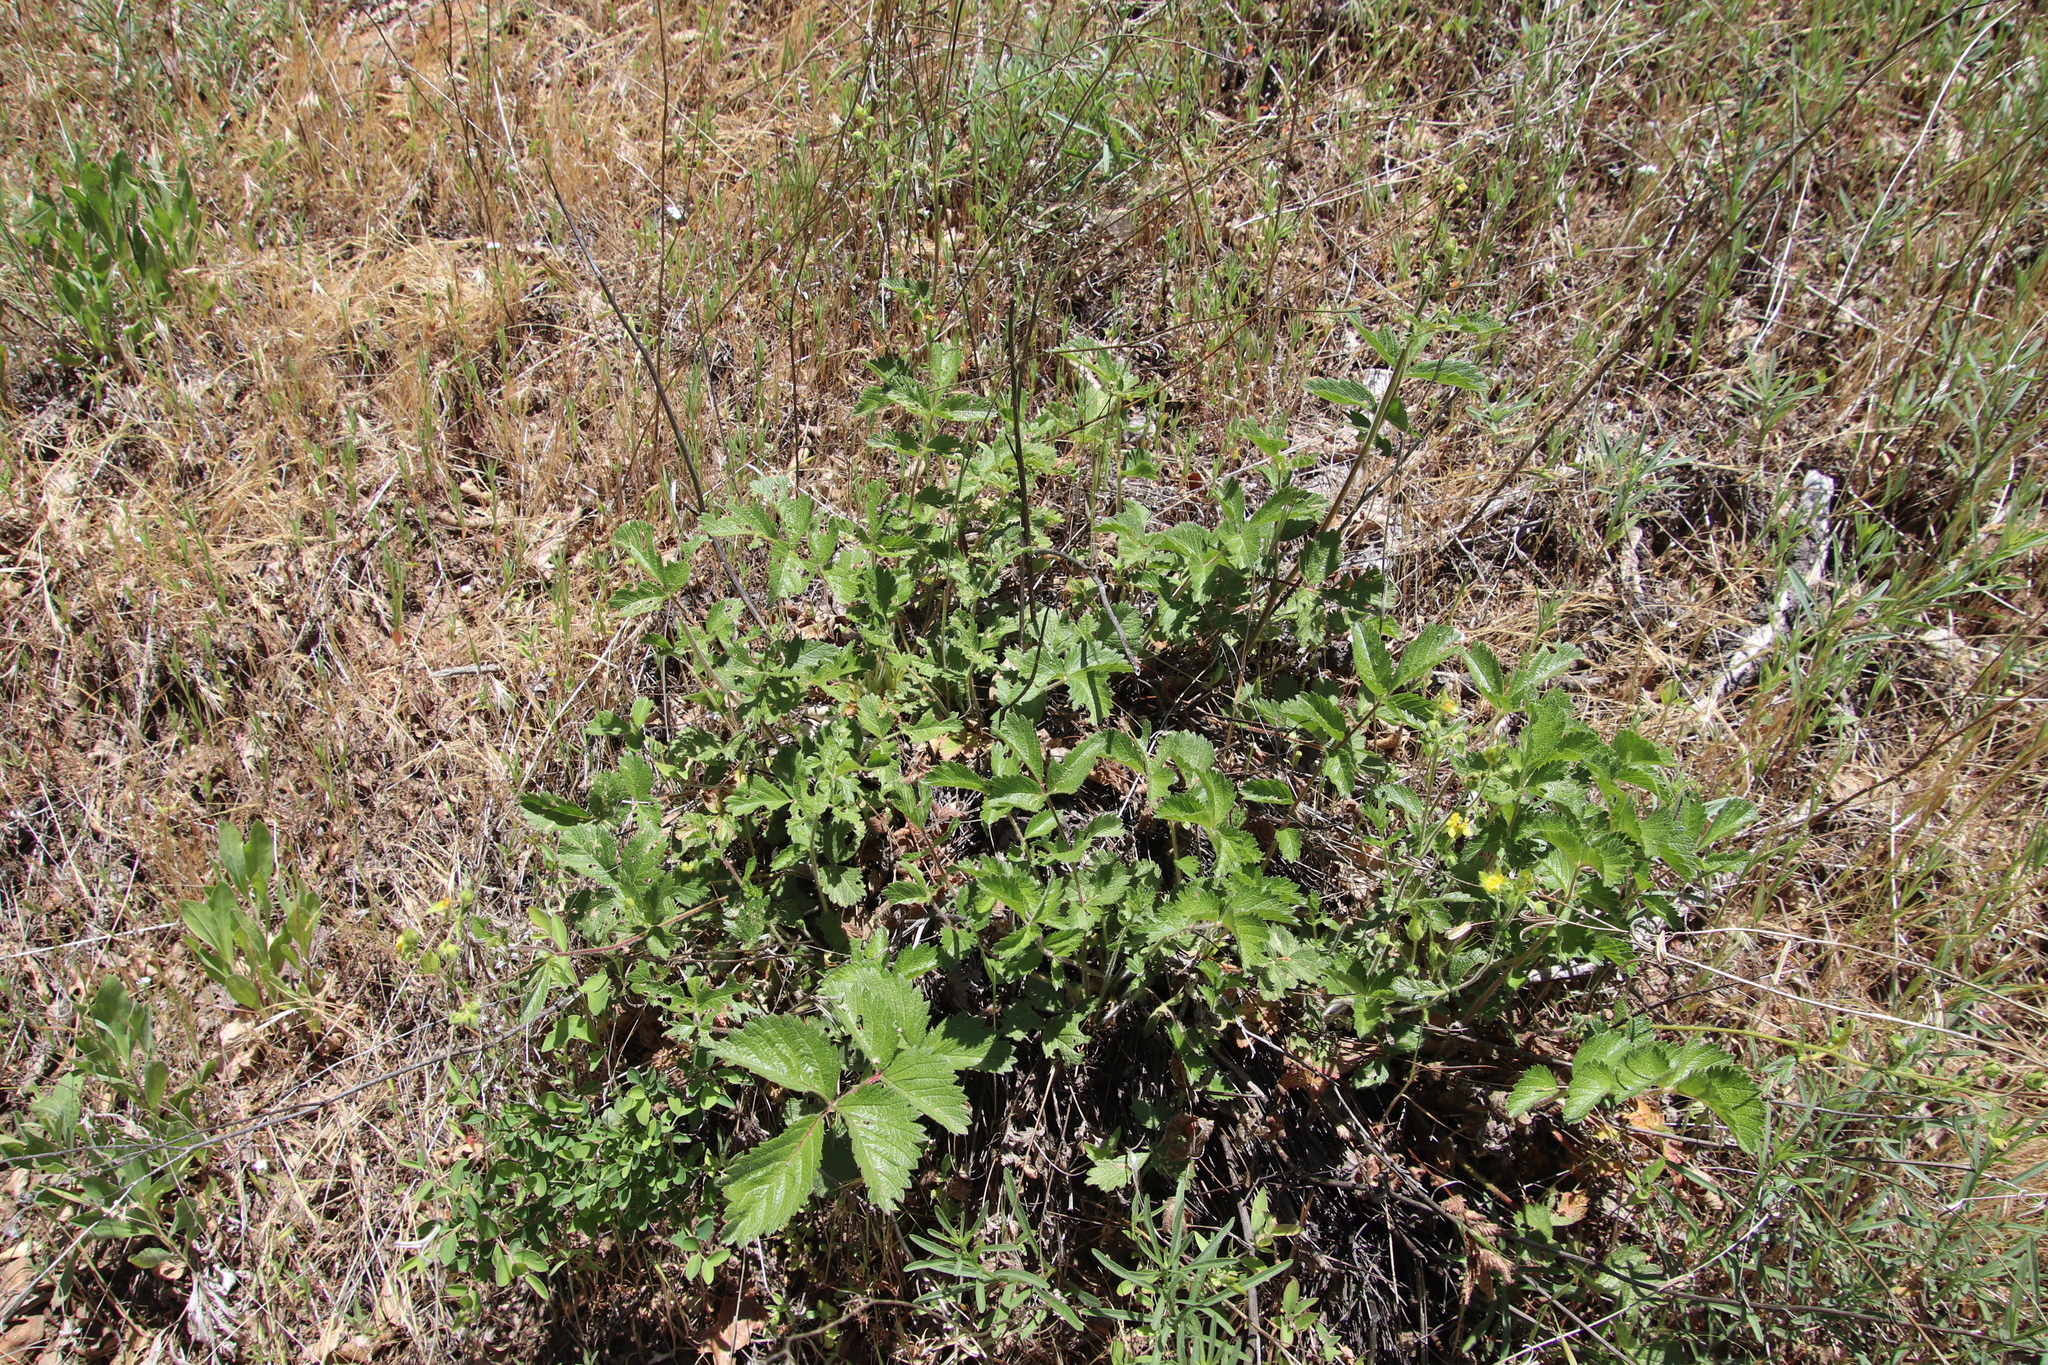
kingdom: Plantae
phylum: Tracheophyta
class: Magnoliopsida
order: Rosales
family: Rosaceae
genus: Drymocallis
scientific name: Drymocallis glandulosa
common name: Sticky cinquefoil
